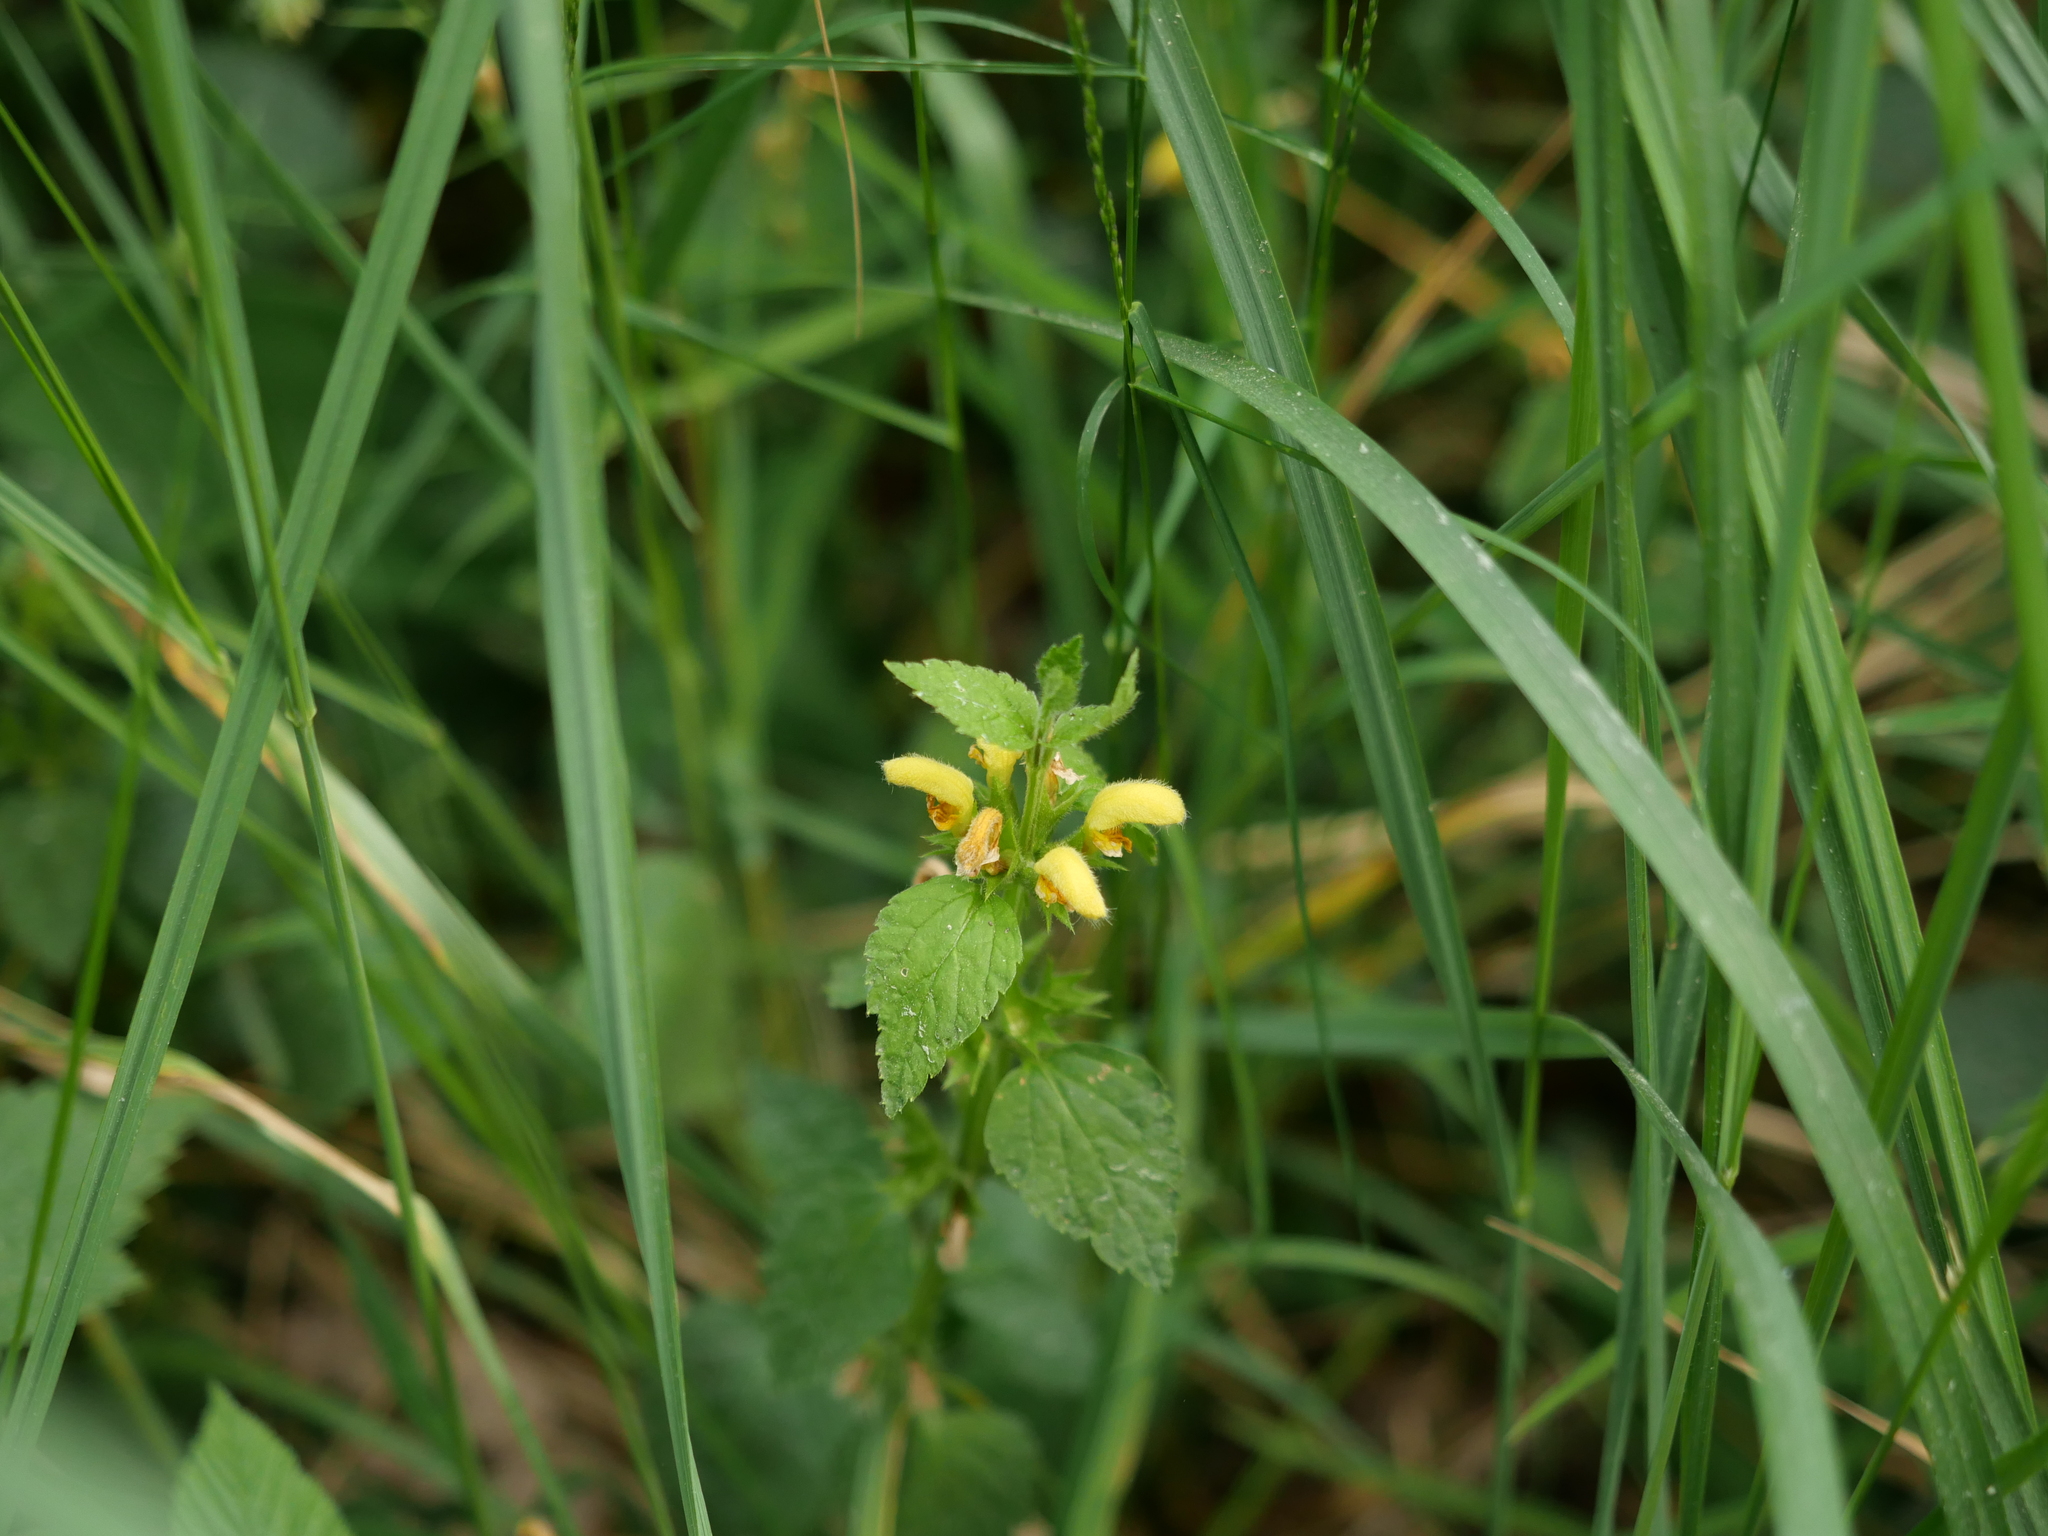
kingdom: Plantae
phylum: Tracheophyta
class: Magnoliopsida
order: Lamiales
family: Lamiaceae
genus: Lamium
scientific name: Lamium galeobdolon
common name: Yellow archangel
